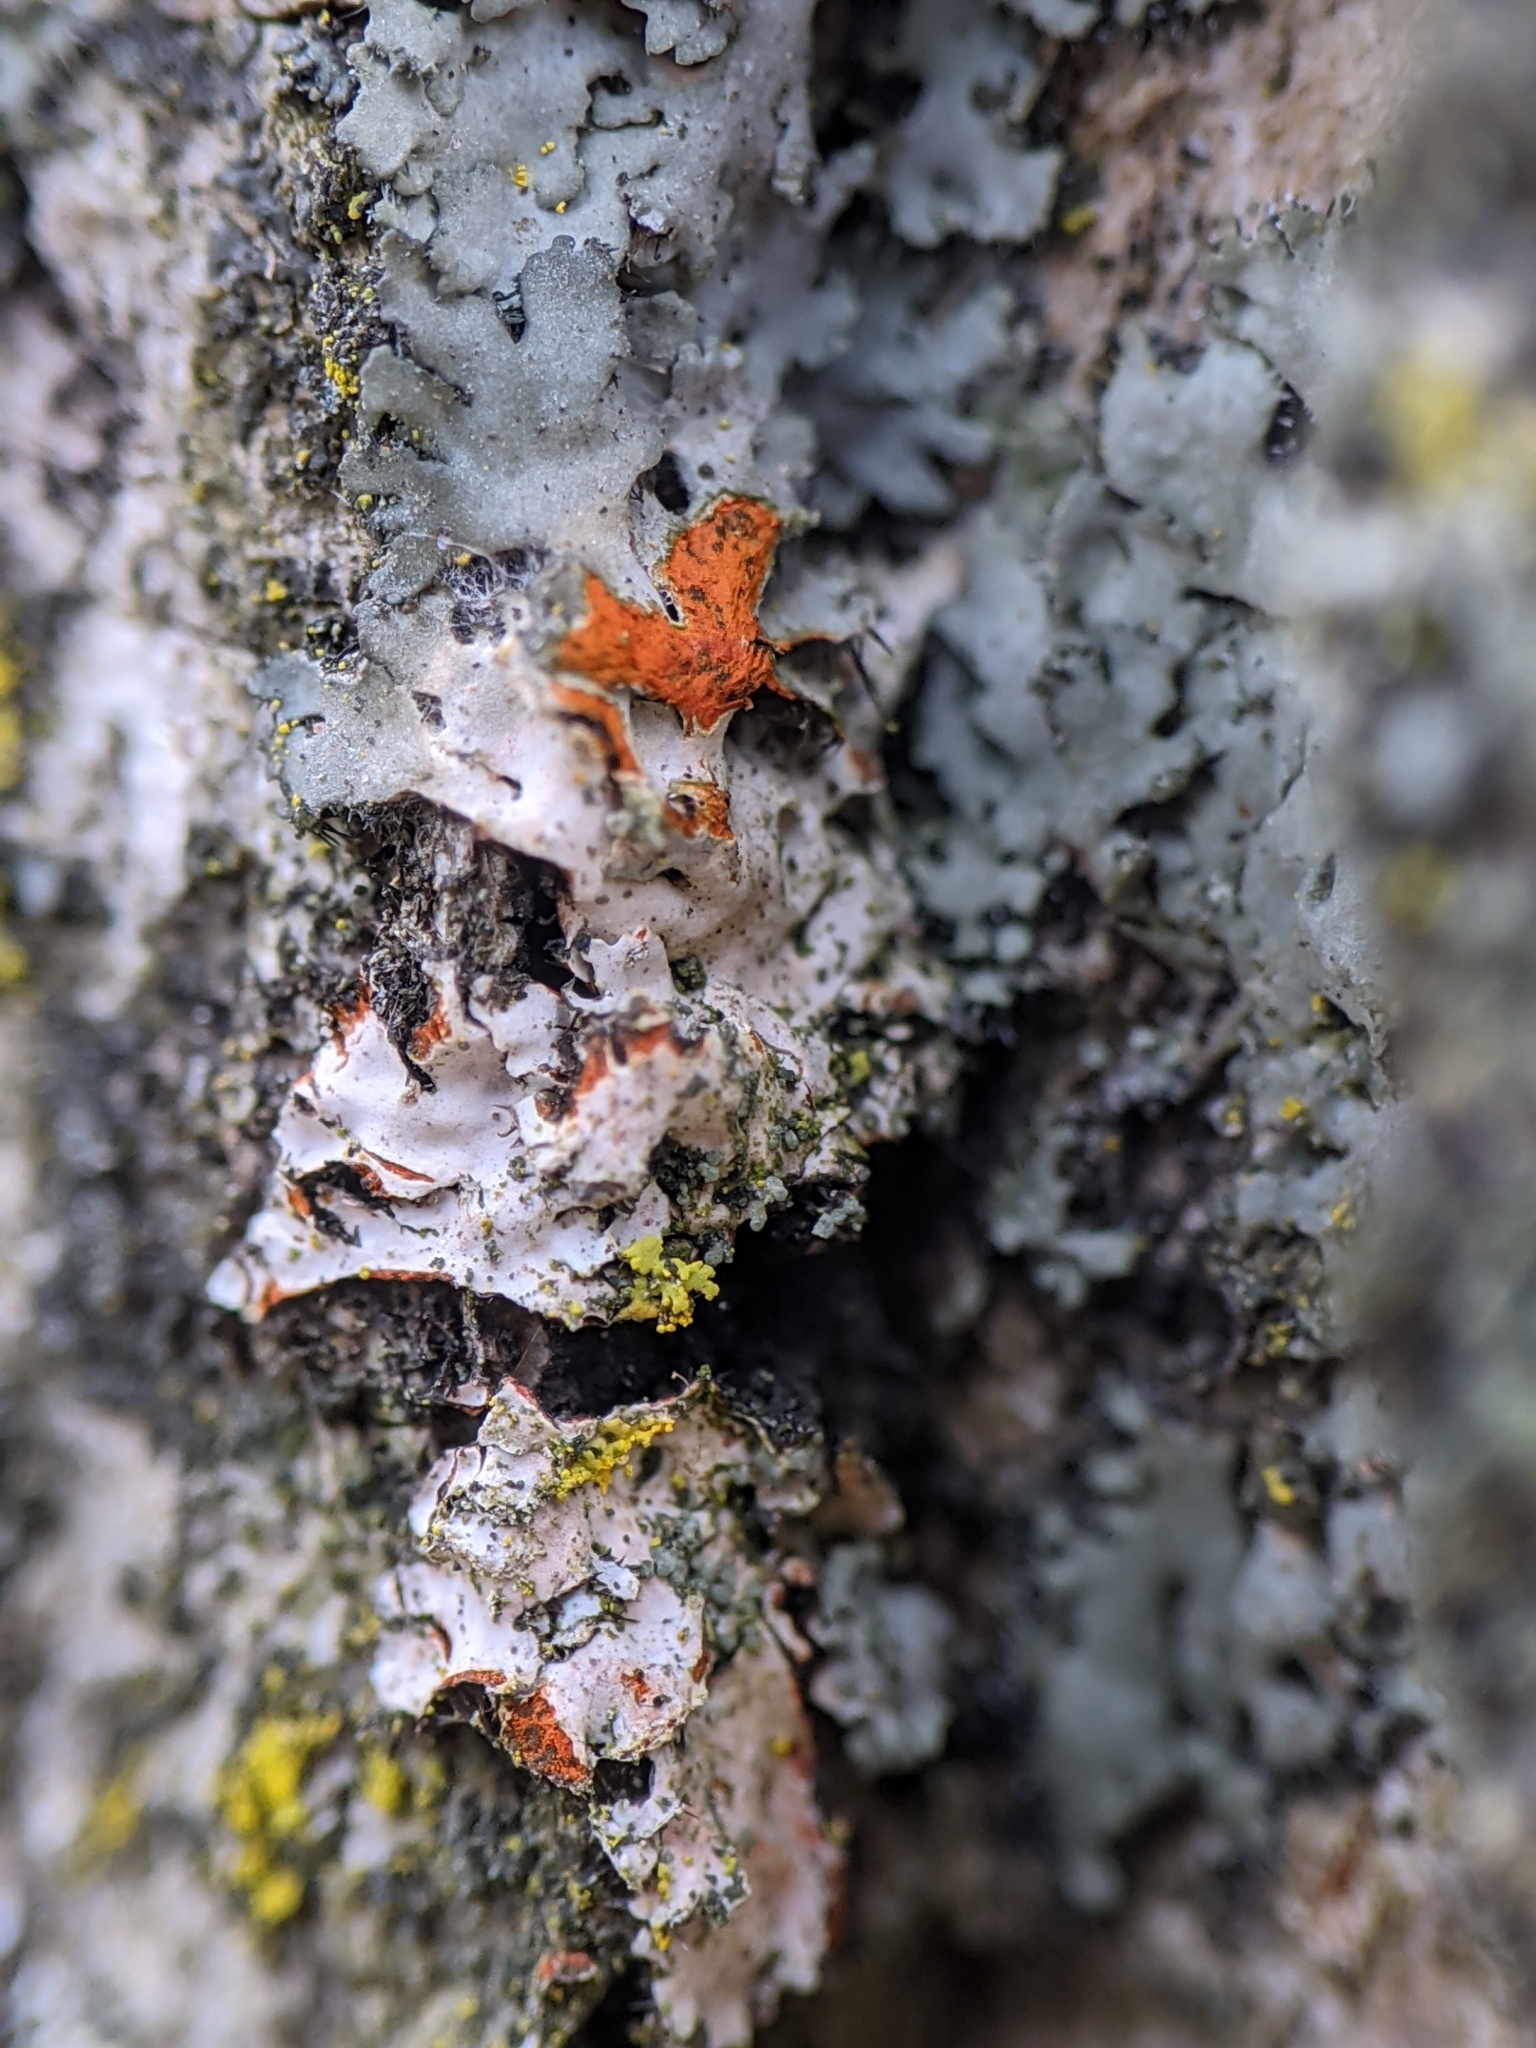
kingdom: Fungi
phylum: Ascomycota
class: Lecanoromycetes
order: Caliciales
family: Physciaceae
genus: Phaeophyscia
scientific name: Phaeophyscia rubropulchra
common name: Orange-cored shadow lichen
